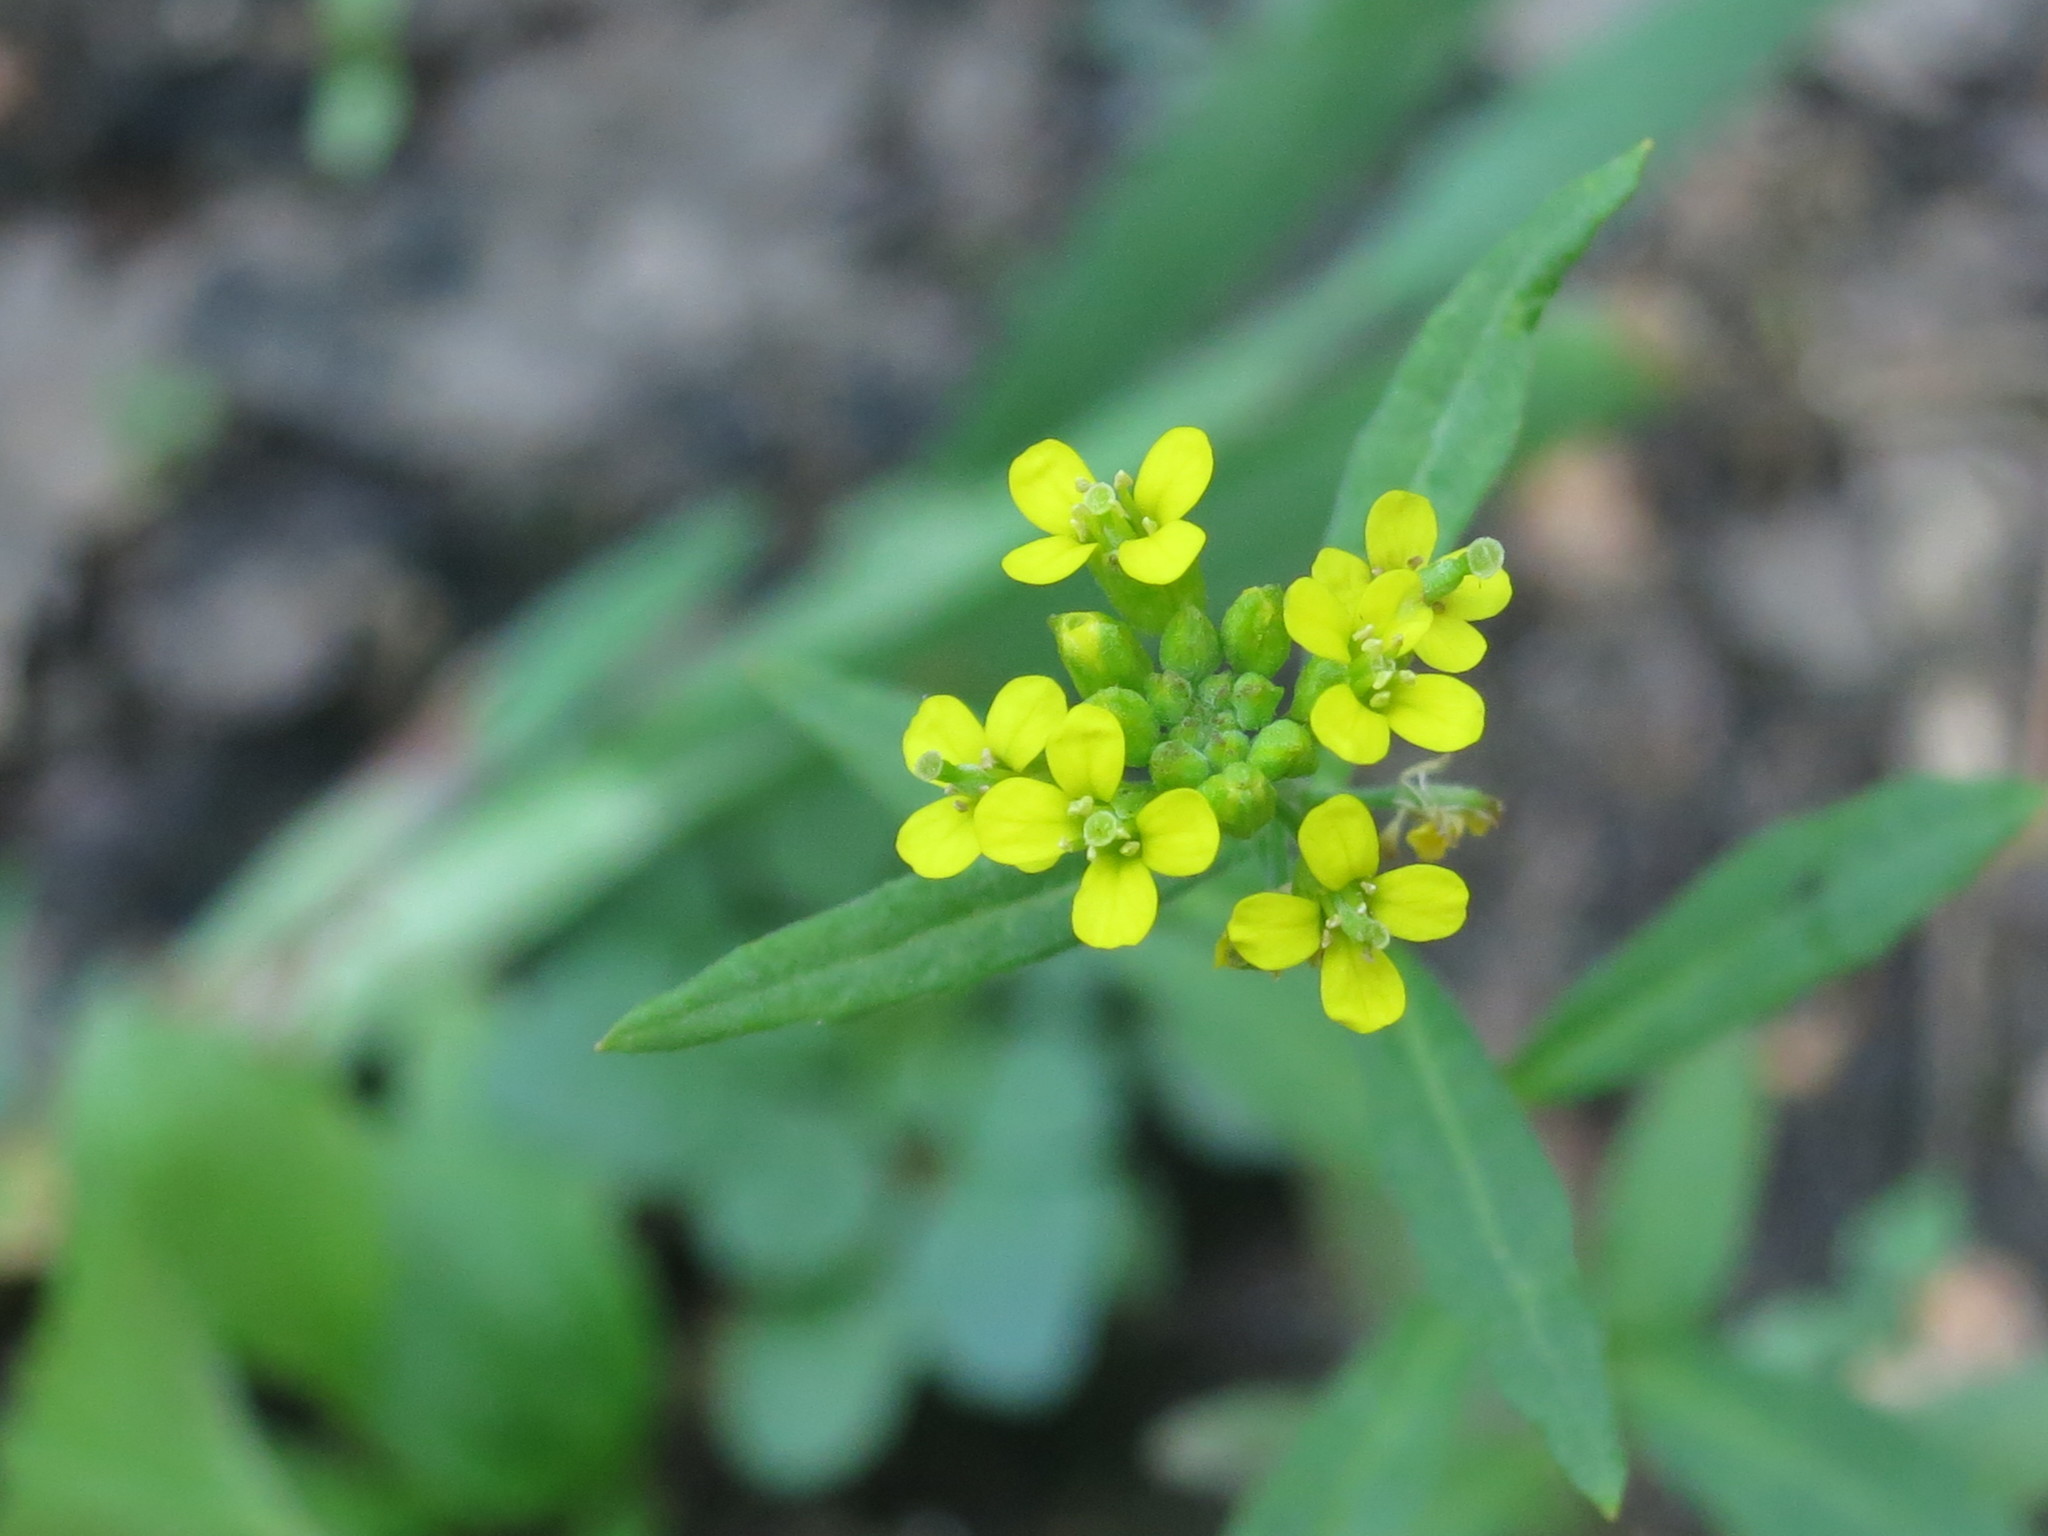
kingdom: Plantae
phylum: Tracheophyta
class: Magnoliopsida
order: Brassicales
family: Brassicaceae
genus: Erysimum
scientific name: Erysimum cheiranthoides
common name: Treacle mustard
